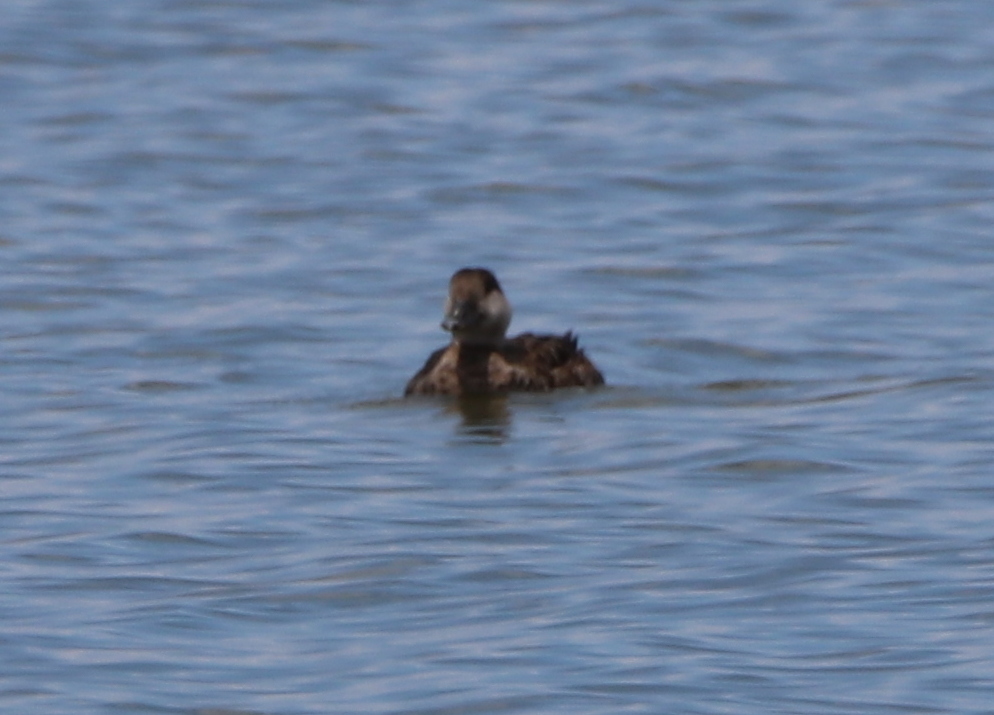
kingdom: Animalia
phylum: Chordata
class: Aves
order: Anseriformes
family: Anatidae
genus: Melanitta
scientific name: Melanitta americana
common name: Black scoter
